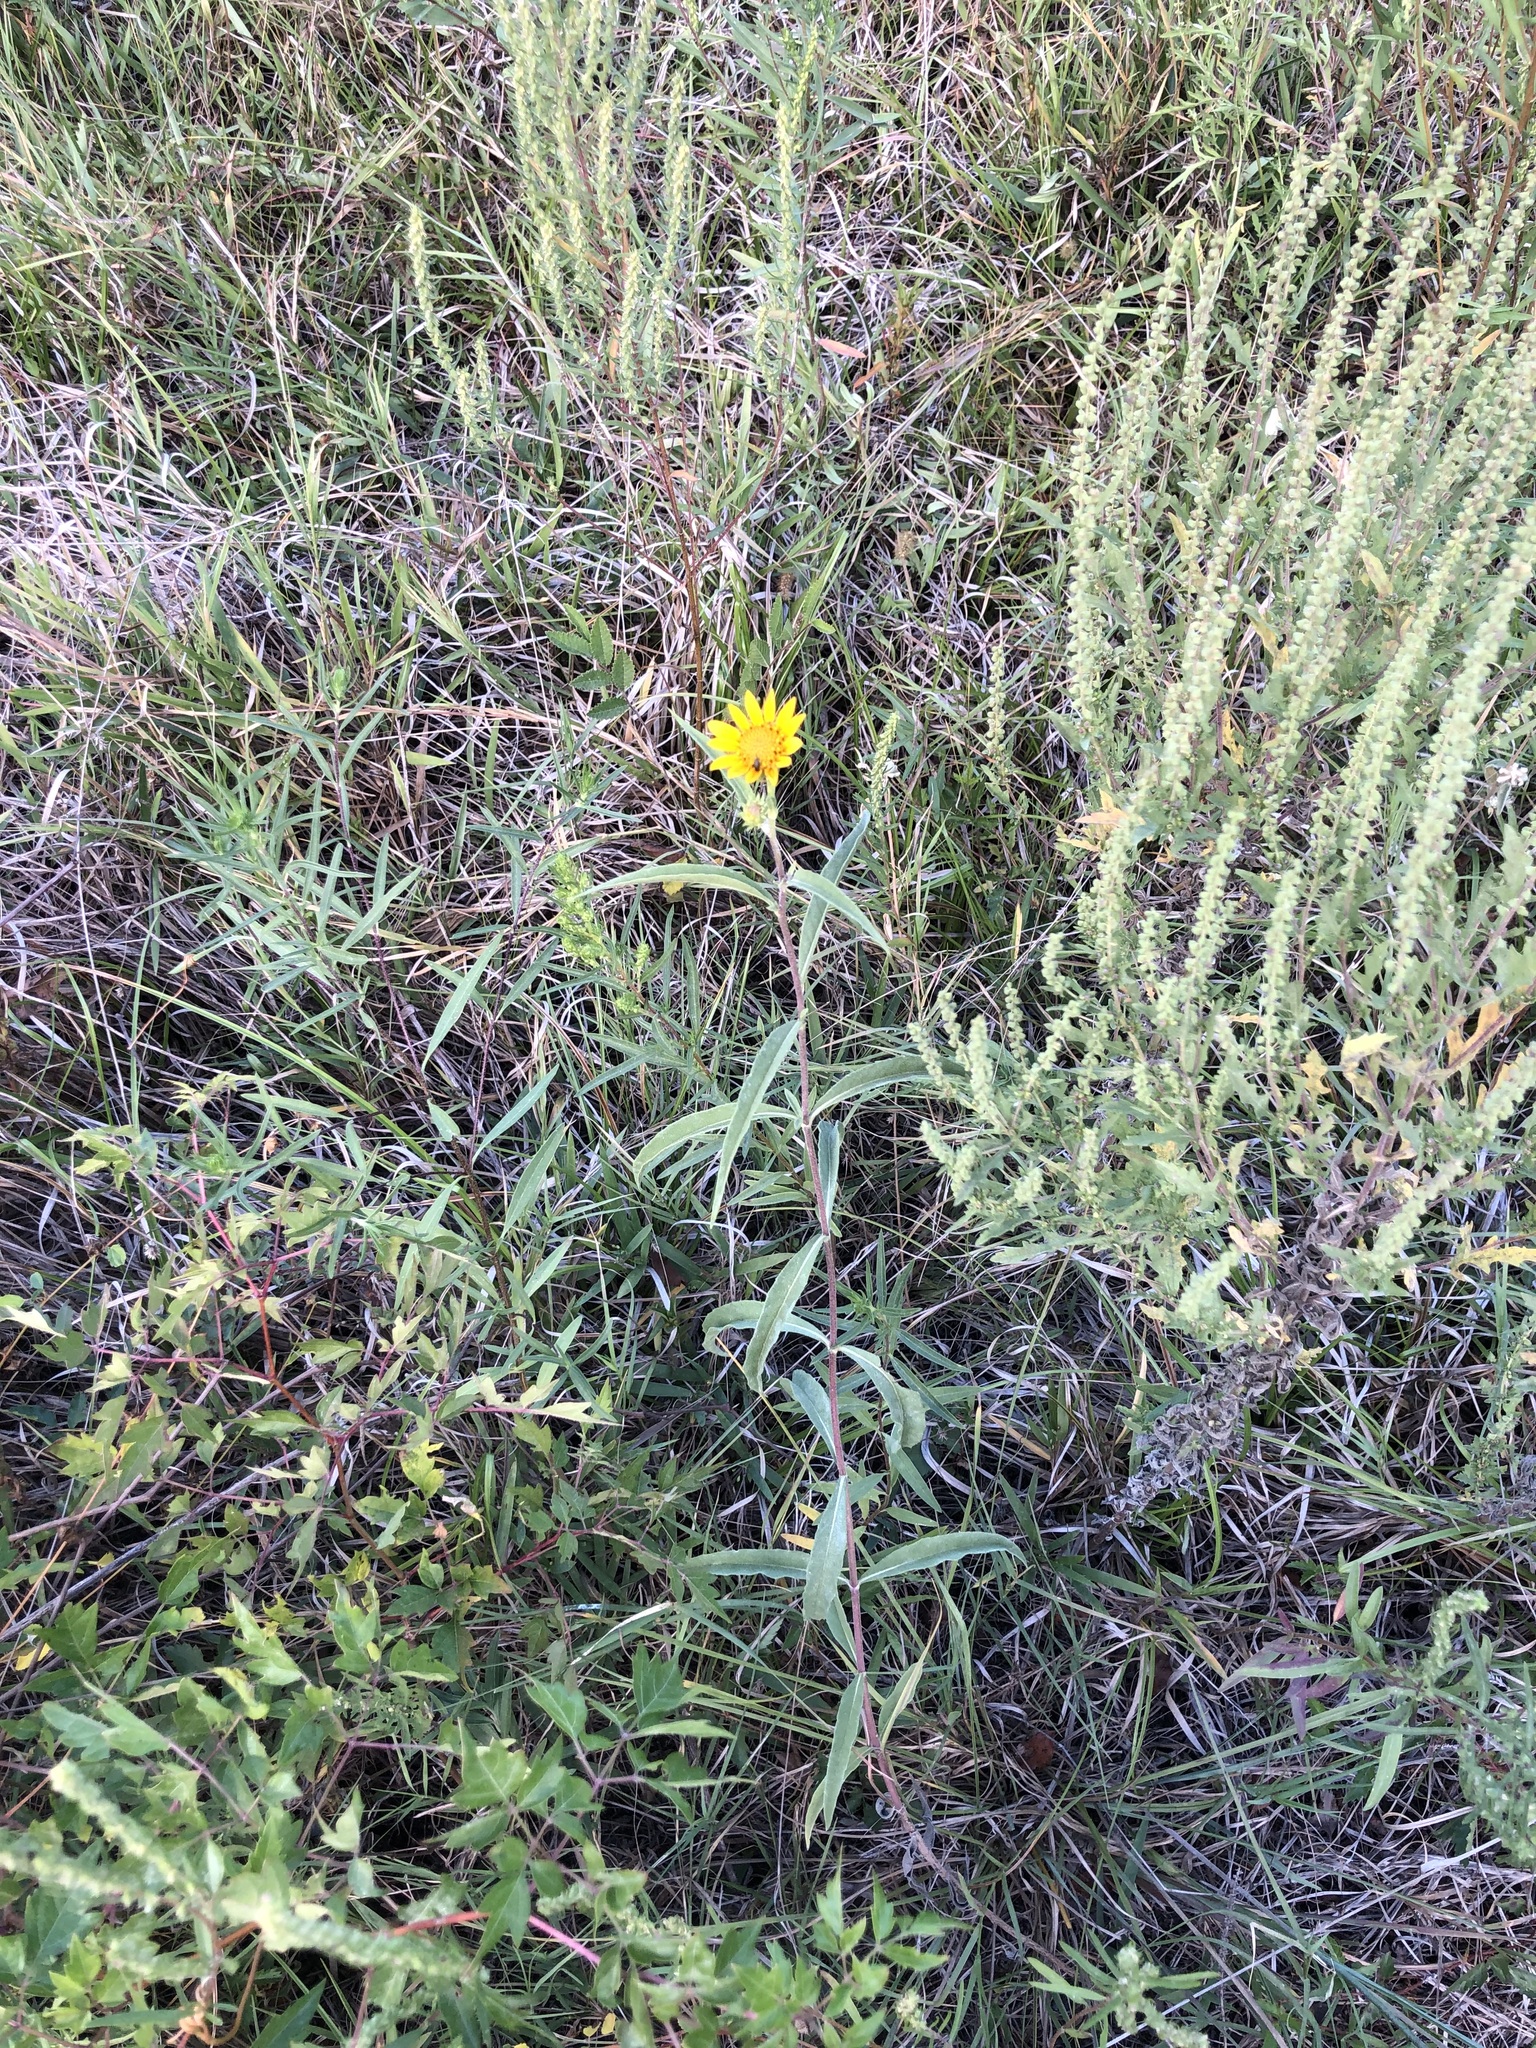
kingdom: Plantae
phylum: Tracheophyta
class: Magnoliopsida
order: Asterales
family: Asteraceae
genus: Helianthus
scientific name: Helianthus maximiliani
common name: Maximilian's sunflower
